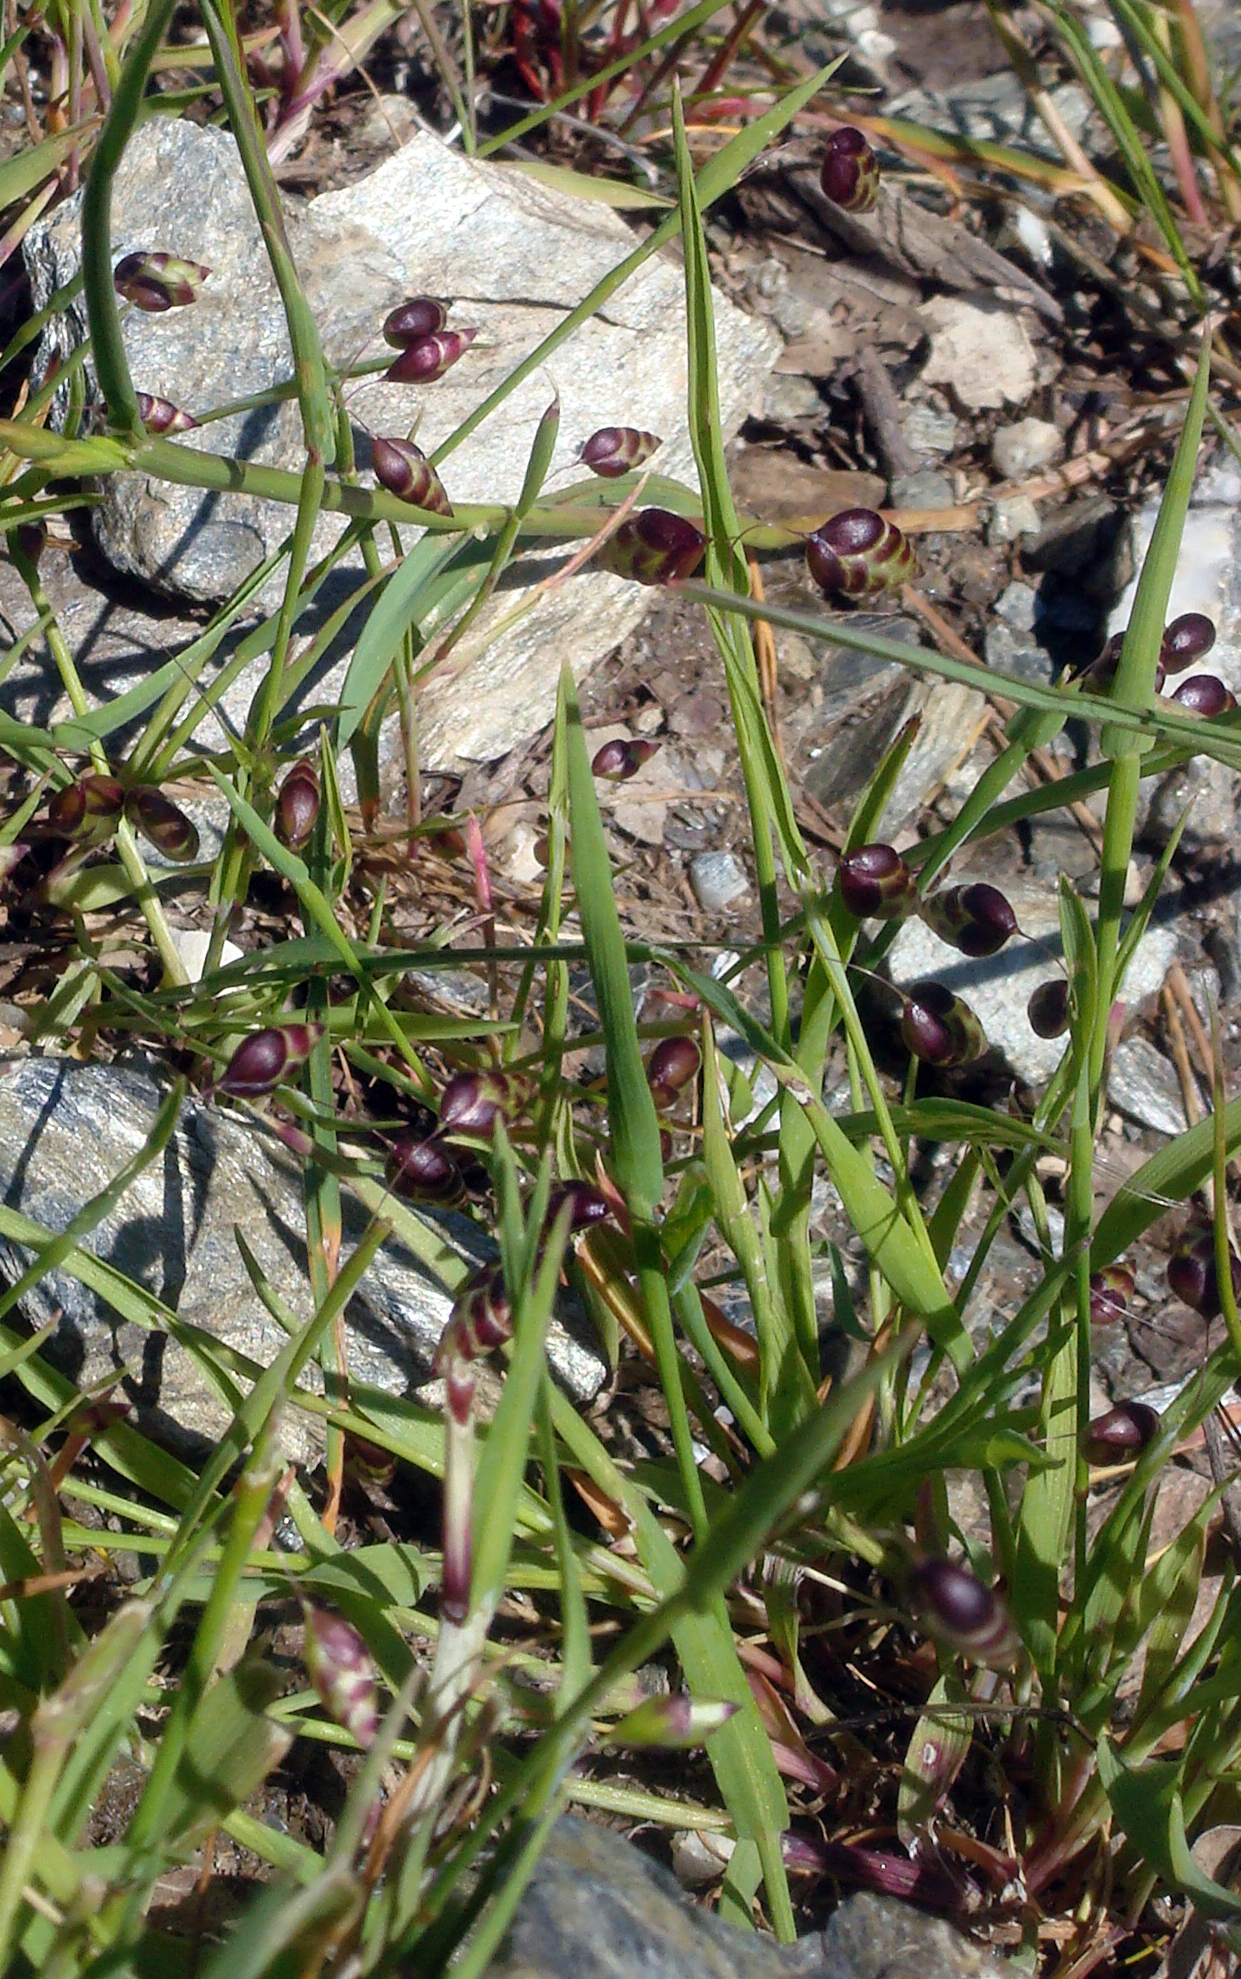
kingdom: Plantae
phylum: Tracheophyta
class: Liliopsida
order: Poales
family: Poaceae
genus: Briza
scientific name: Briza media
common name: Quaking grass
